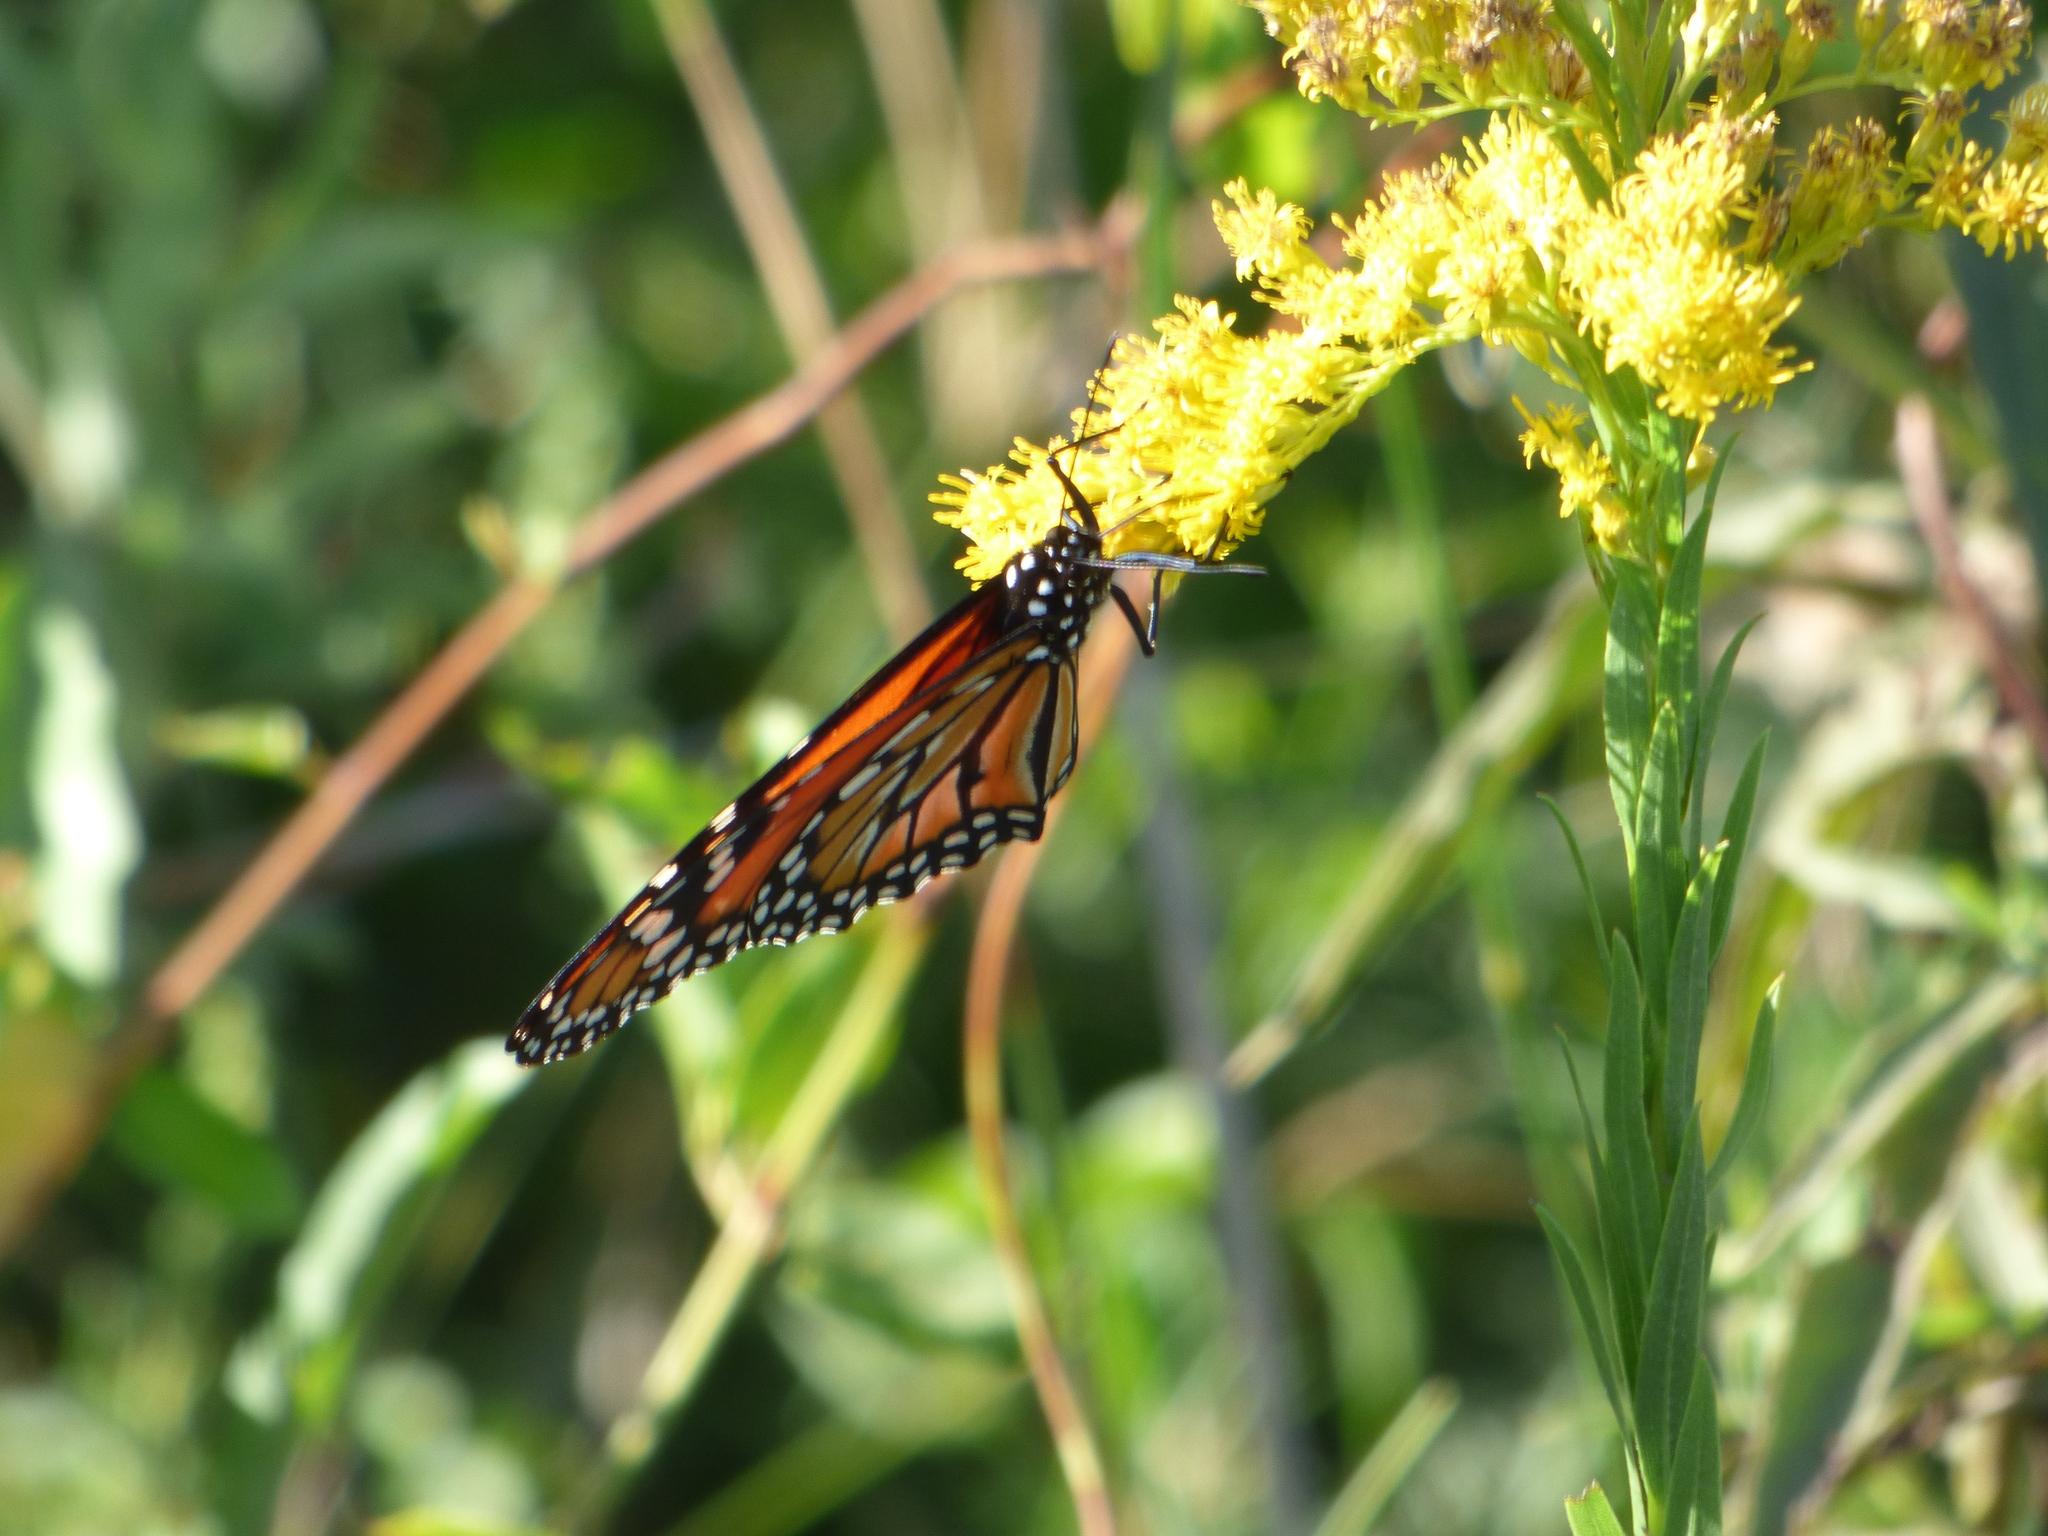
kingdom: Animalia
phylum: Arthropoda
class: Insecta
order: Lepidoptera
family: Nymphalidae
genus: Danaus
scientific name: Danaus erippus
